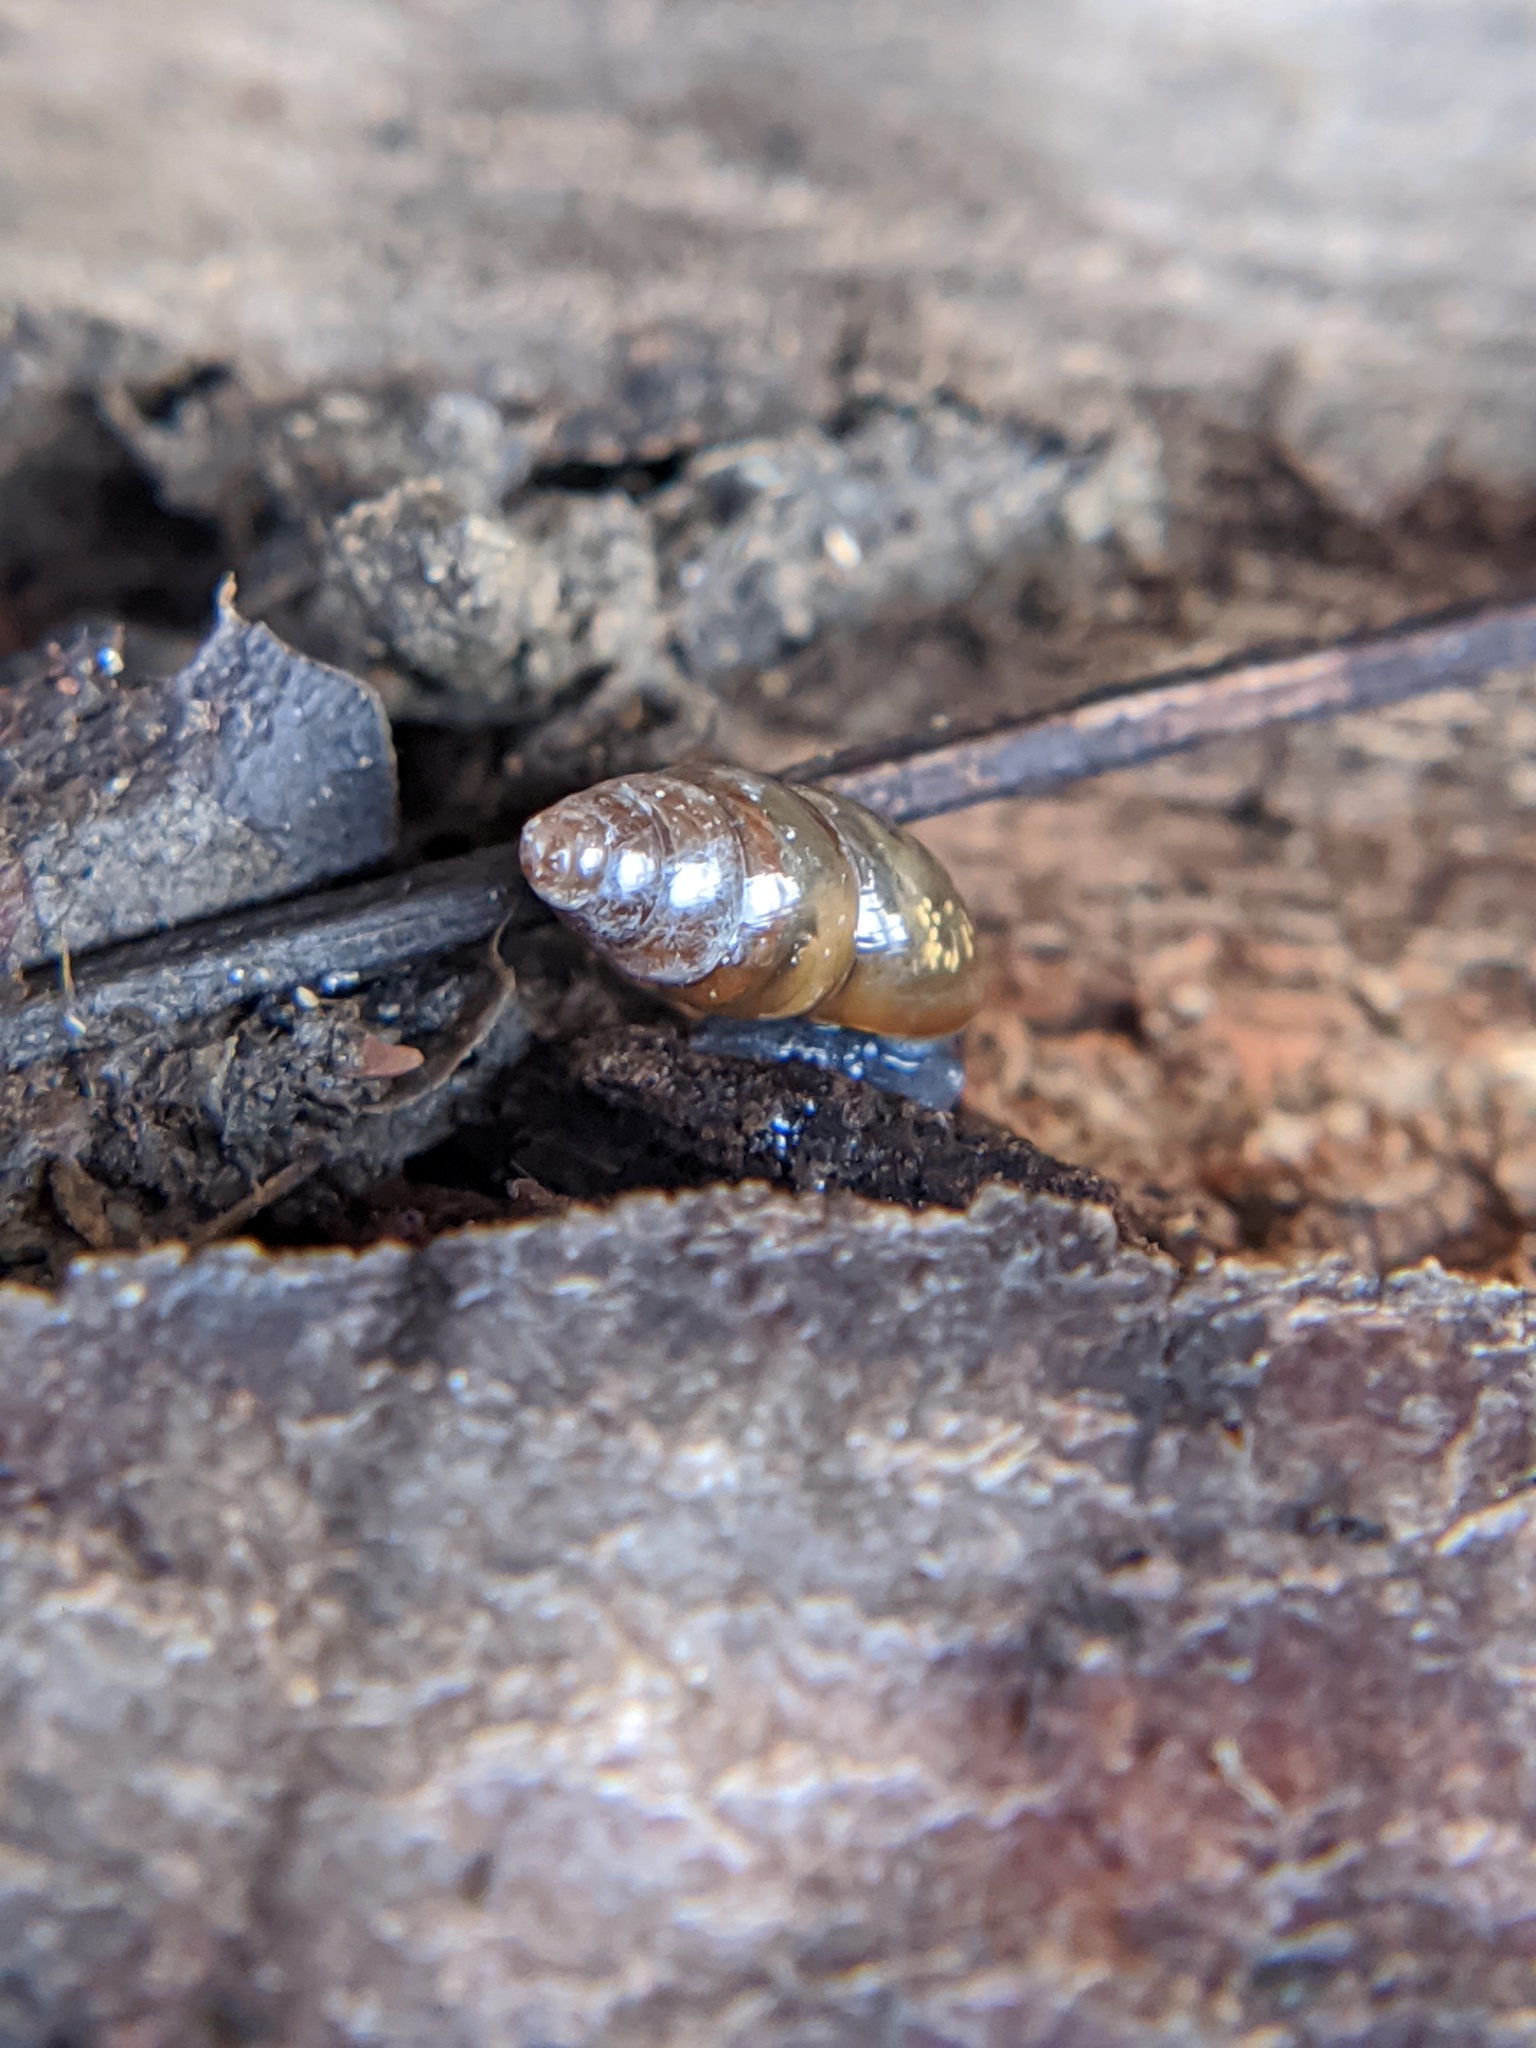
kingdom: Animalia
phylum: Mollusca
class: Gastropoda
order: Stylommatophora
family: Cochlicopidae
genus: Cochlicopa
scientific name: Cochlicopa lubrica
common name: Glossy pillar snail
